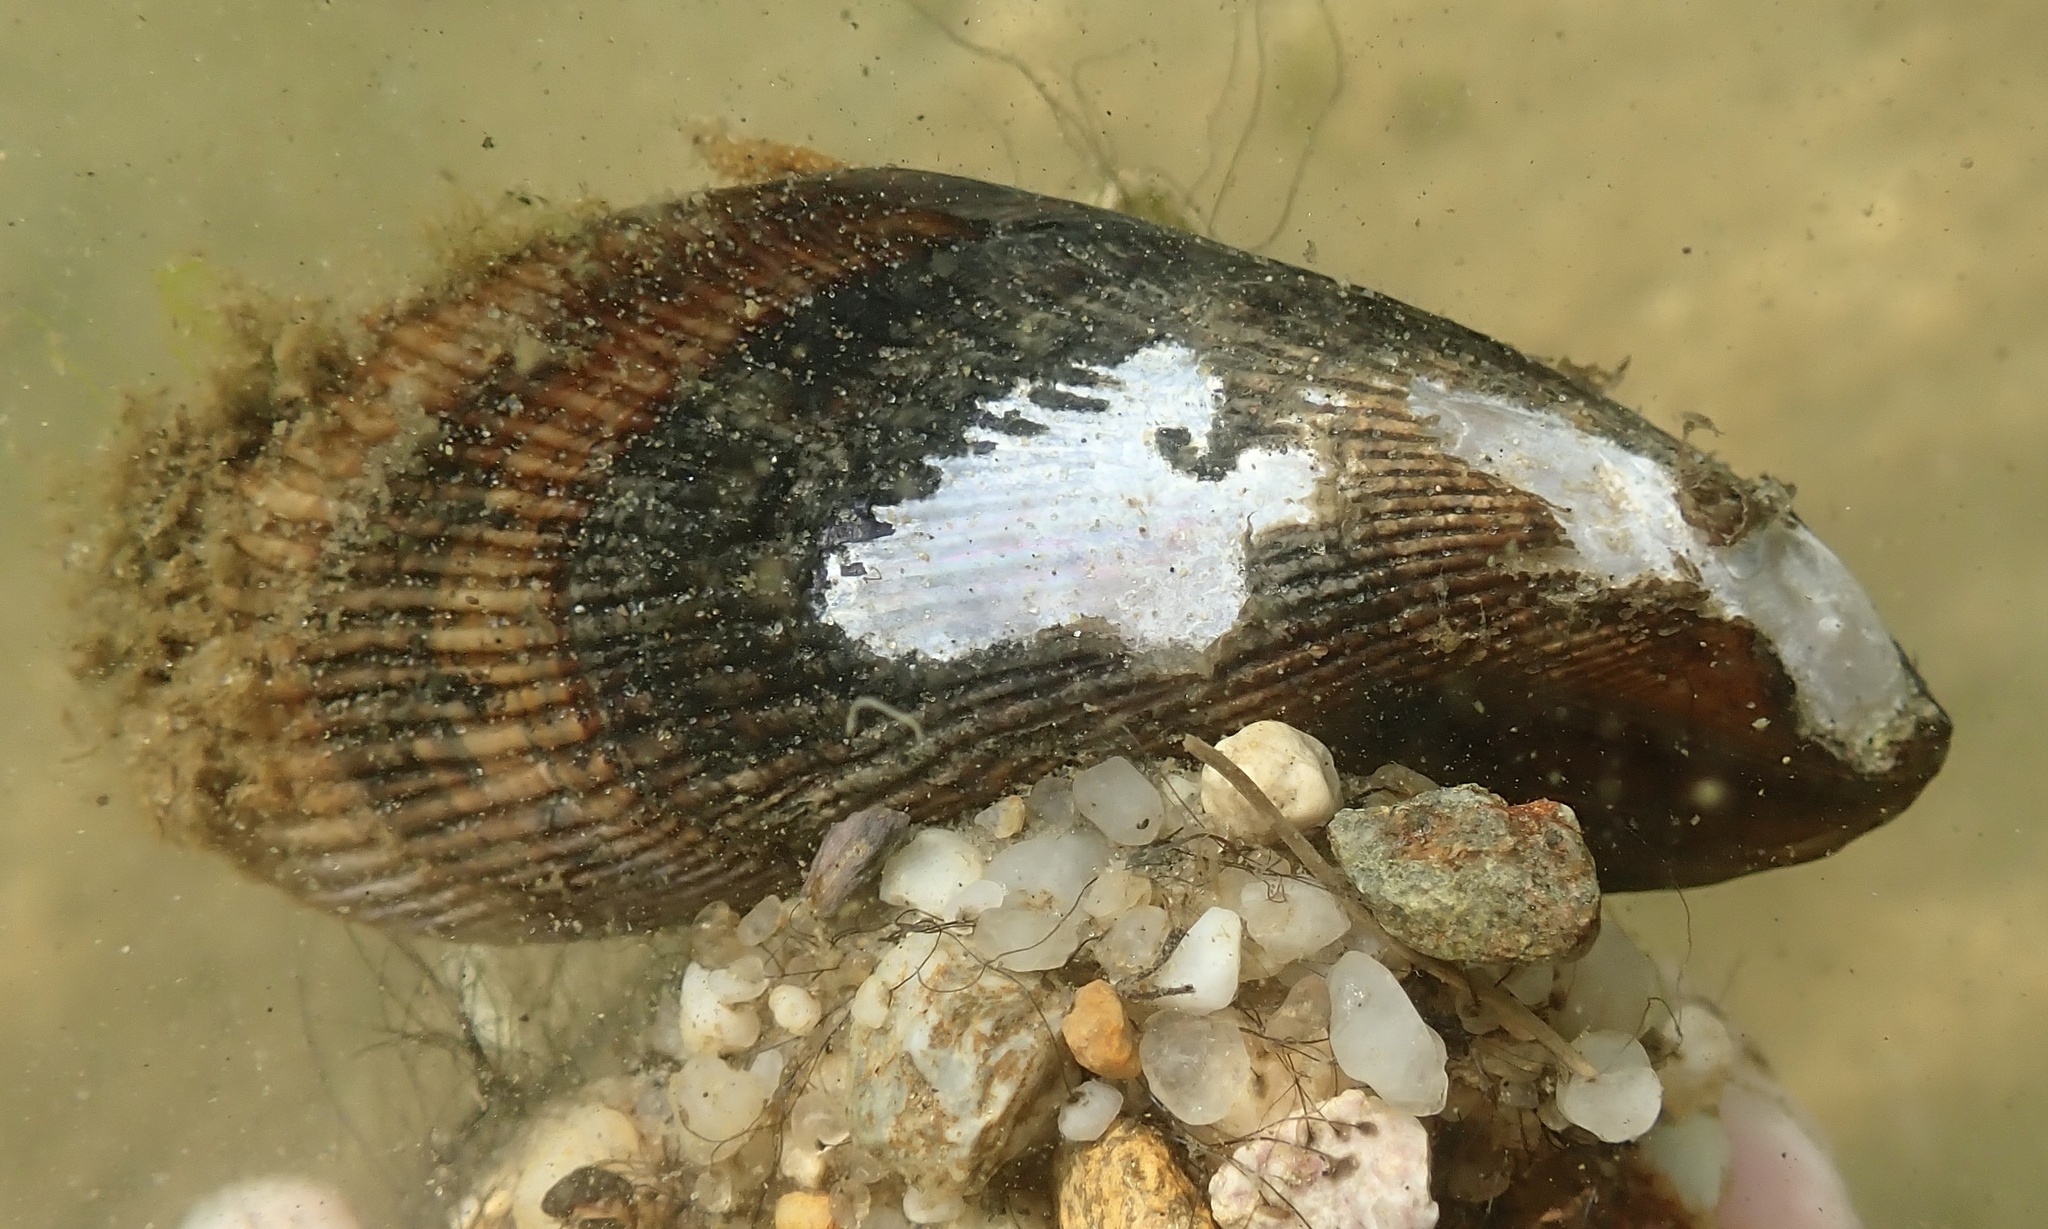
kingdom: Animalia
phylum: Mollusca
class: Bivalvia
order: Mytilida
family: Mytilidae
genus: Geukensia
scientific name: Geukensia demissa
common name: Ribbed mussel
